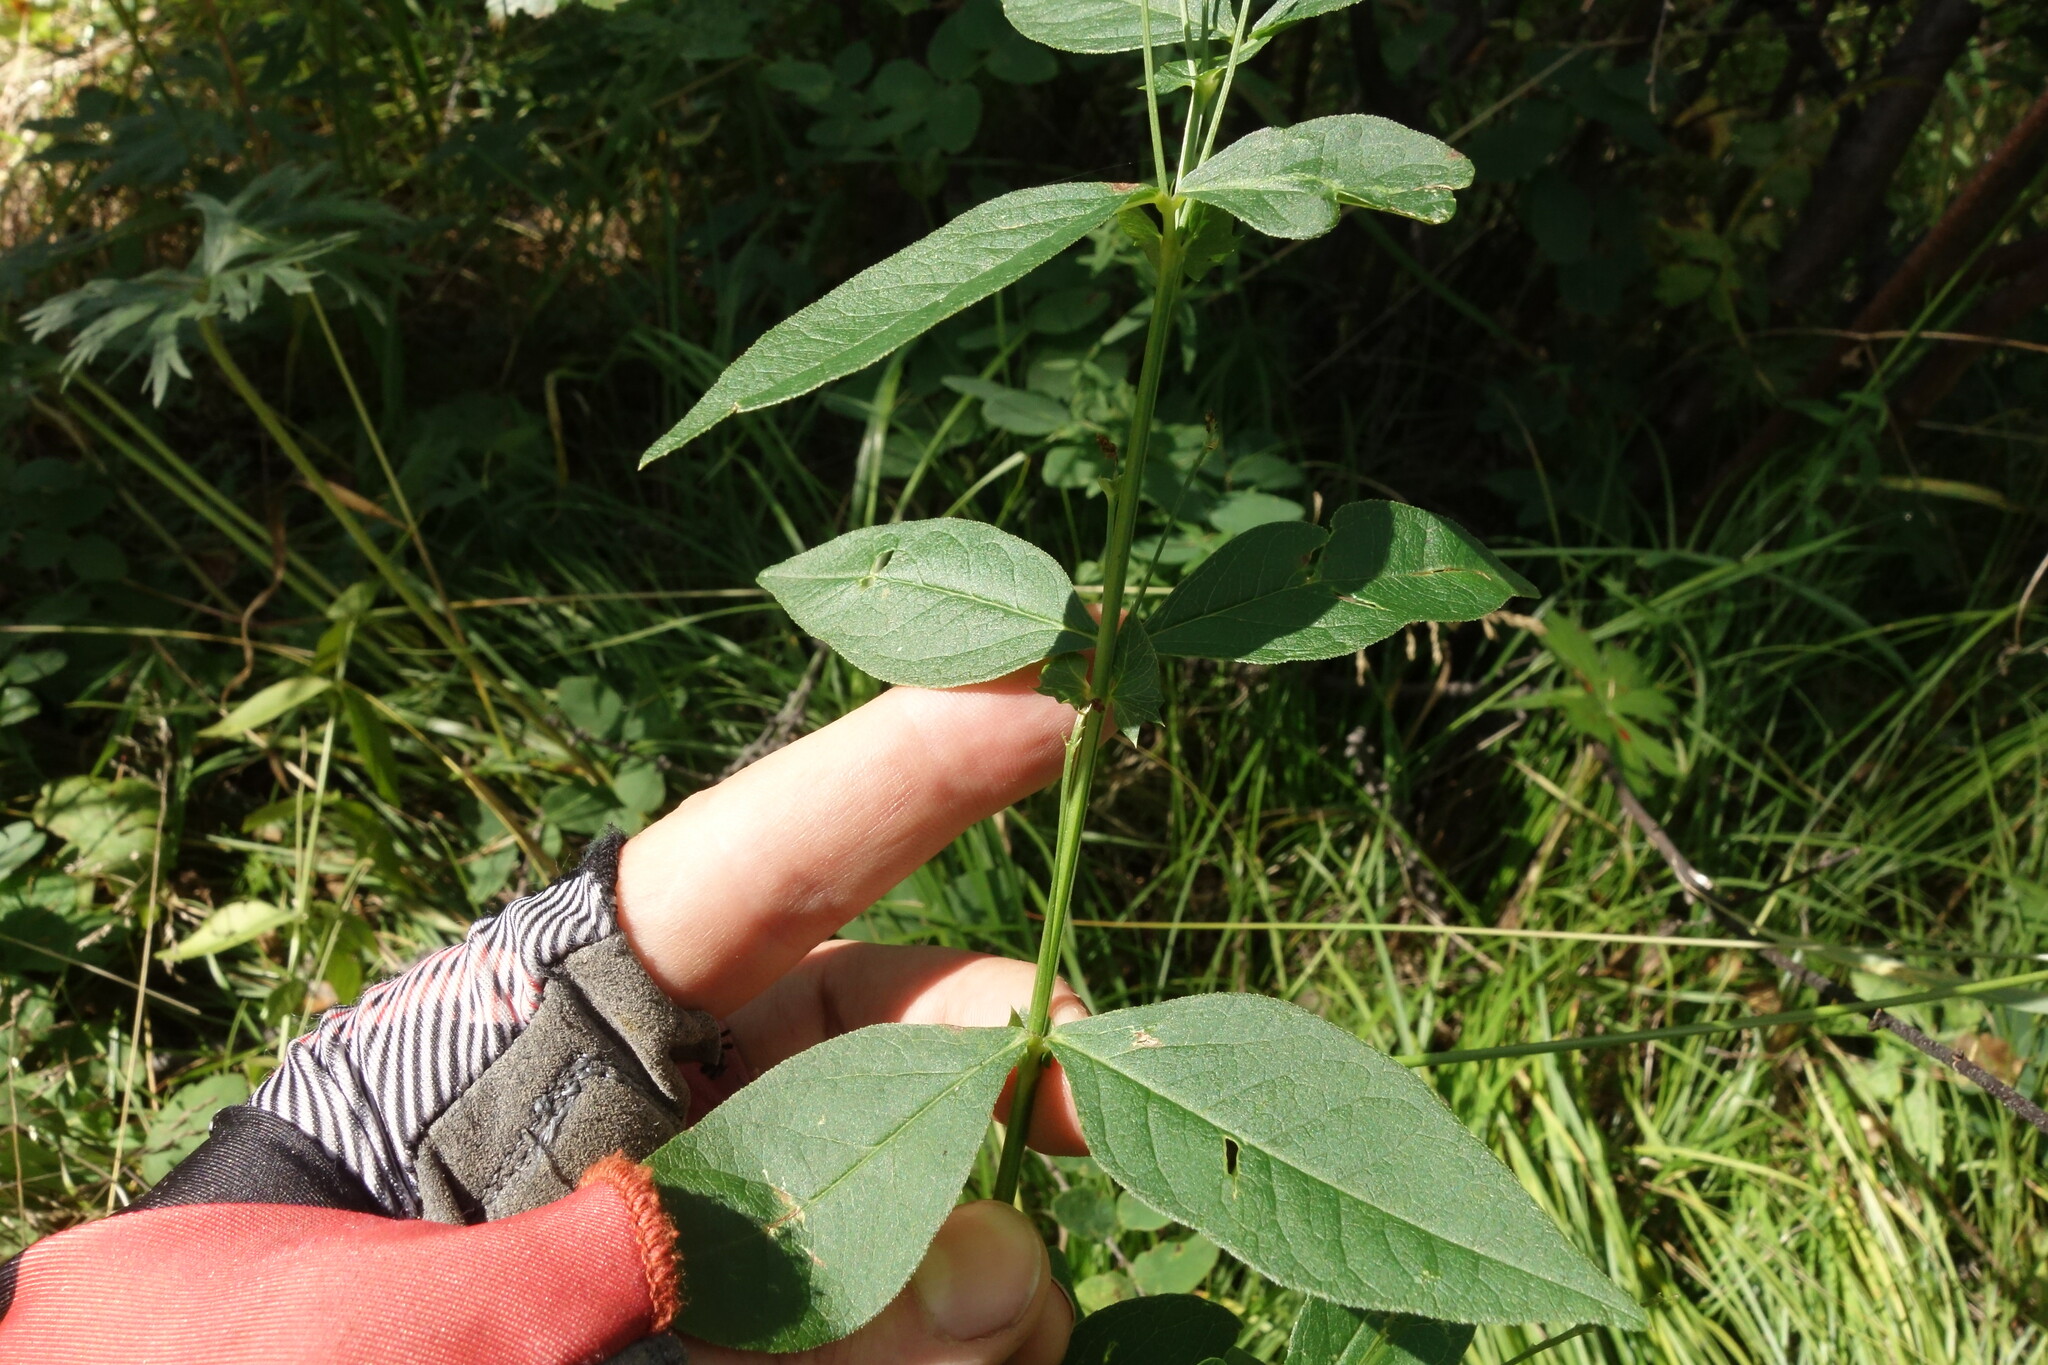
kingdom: Plantae
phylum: Tracheophyta
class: Magnoliopsida
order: Fabales
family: Fabaceae
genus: Vicia
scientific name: Vicia unijuga
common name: Two-leaf vetch
